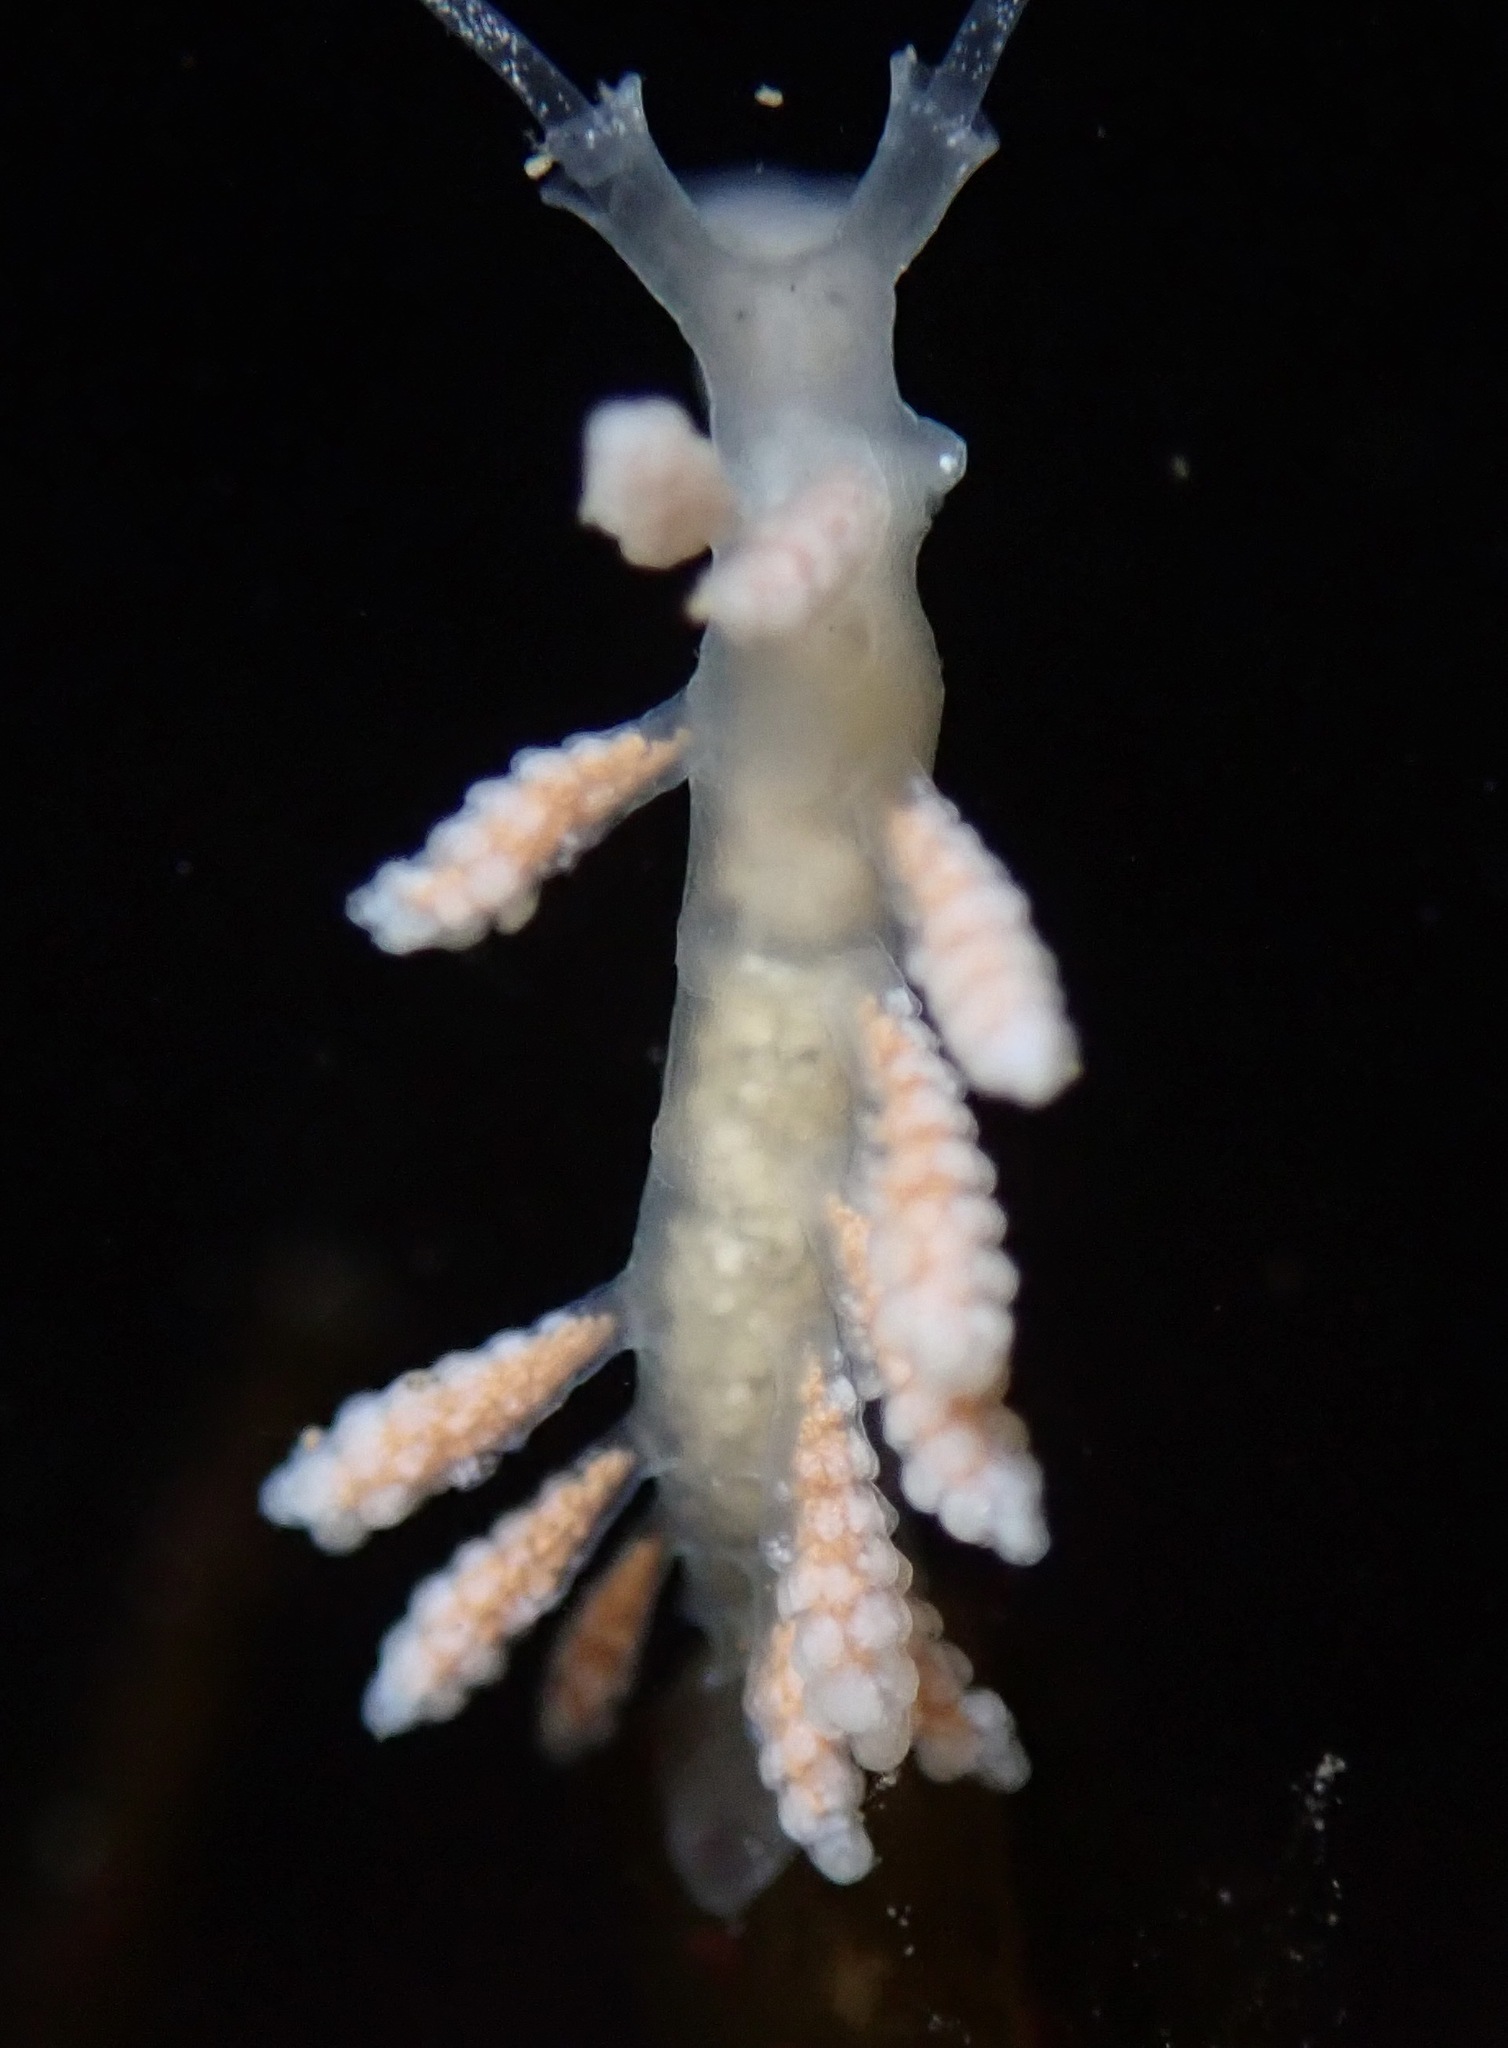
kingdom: Animalia
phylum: Mollusca
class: Gastropoda
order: Nudibranchia
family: Dotidae
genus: Doto
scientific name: Doto amyra
